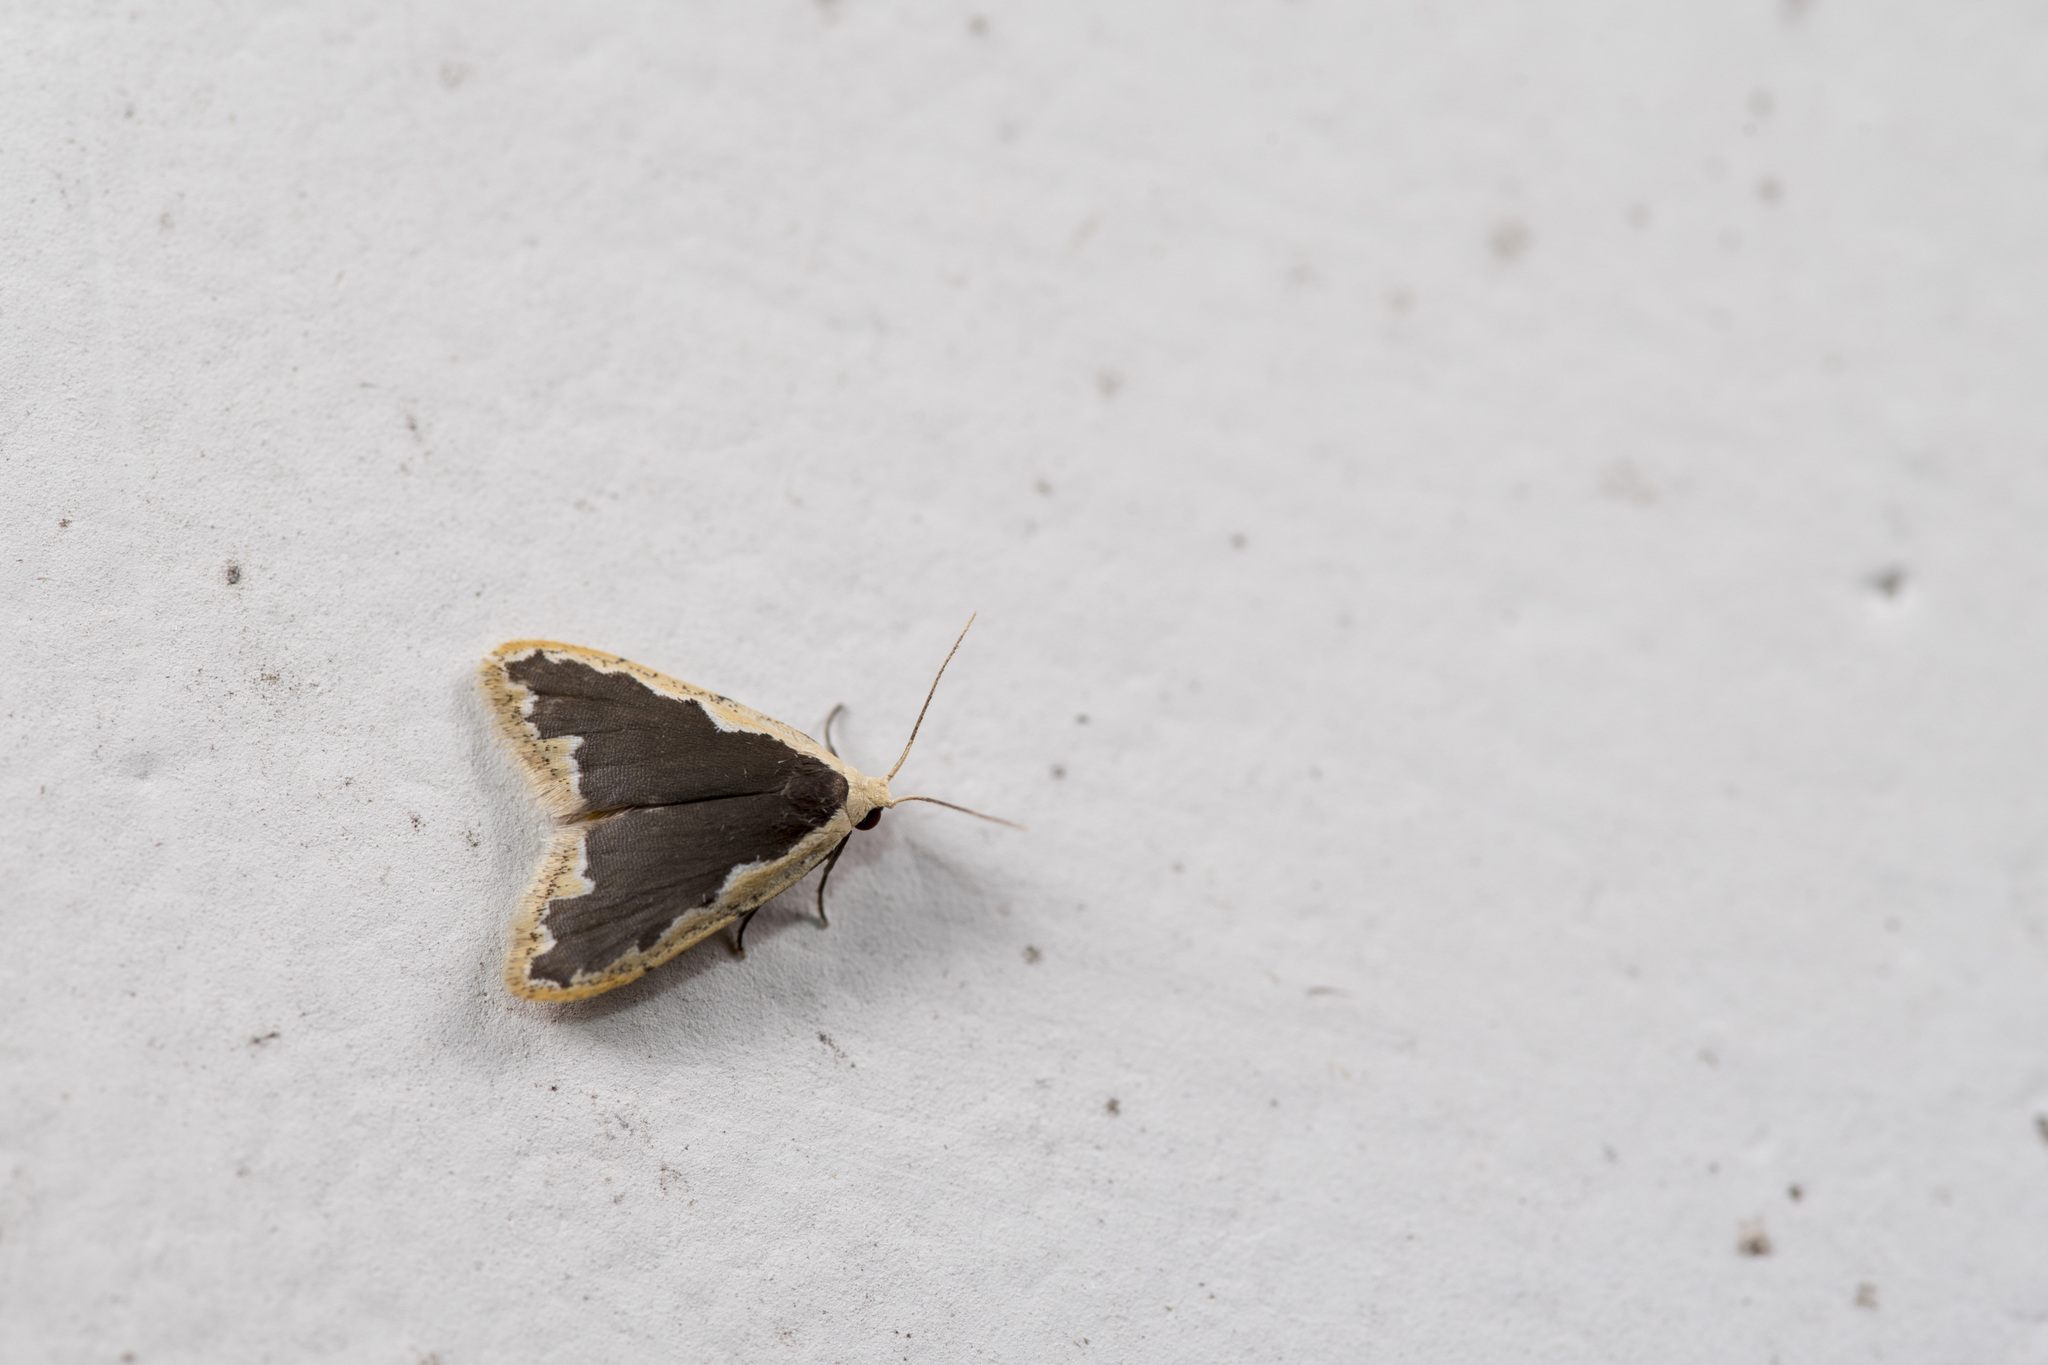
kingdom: Animalia
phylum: Arthropoda
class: Insecta
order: Lepidoptera
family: Erebidae
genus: Diduga
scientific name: Diduga taiwana
